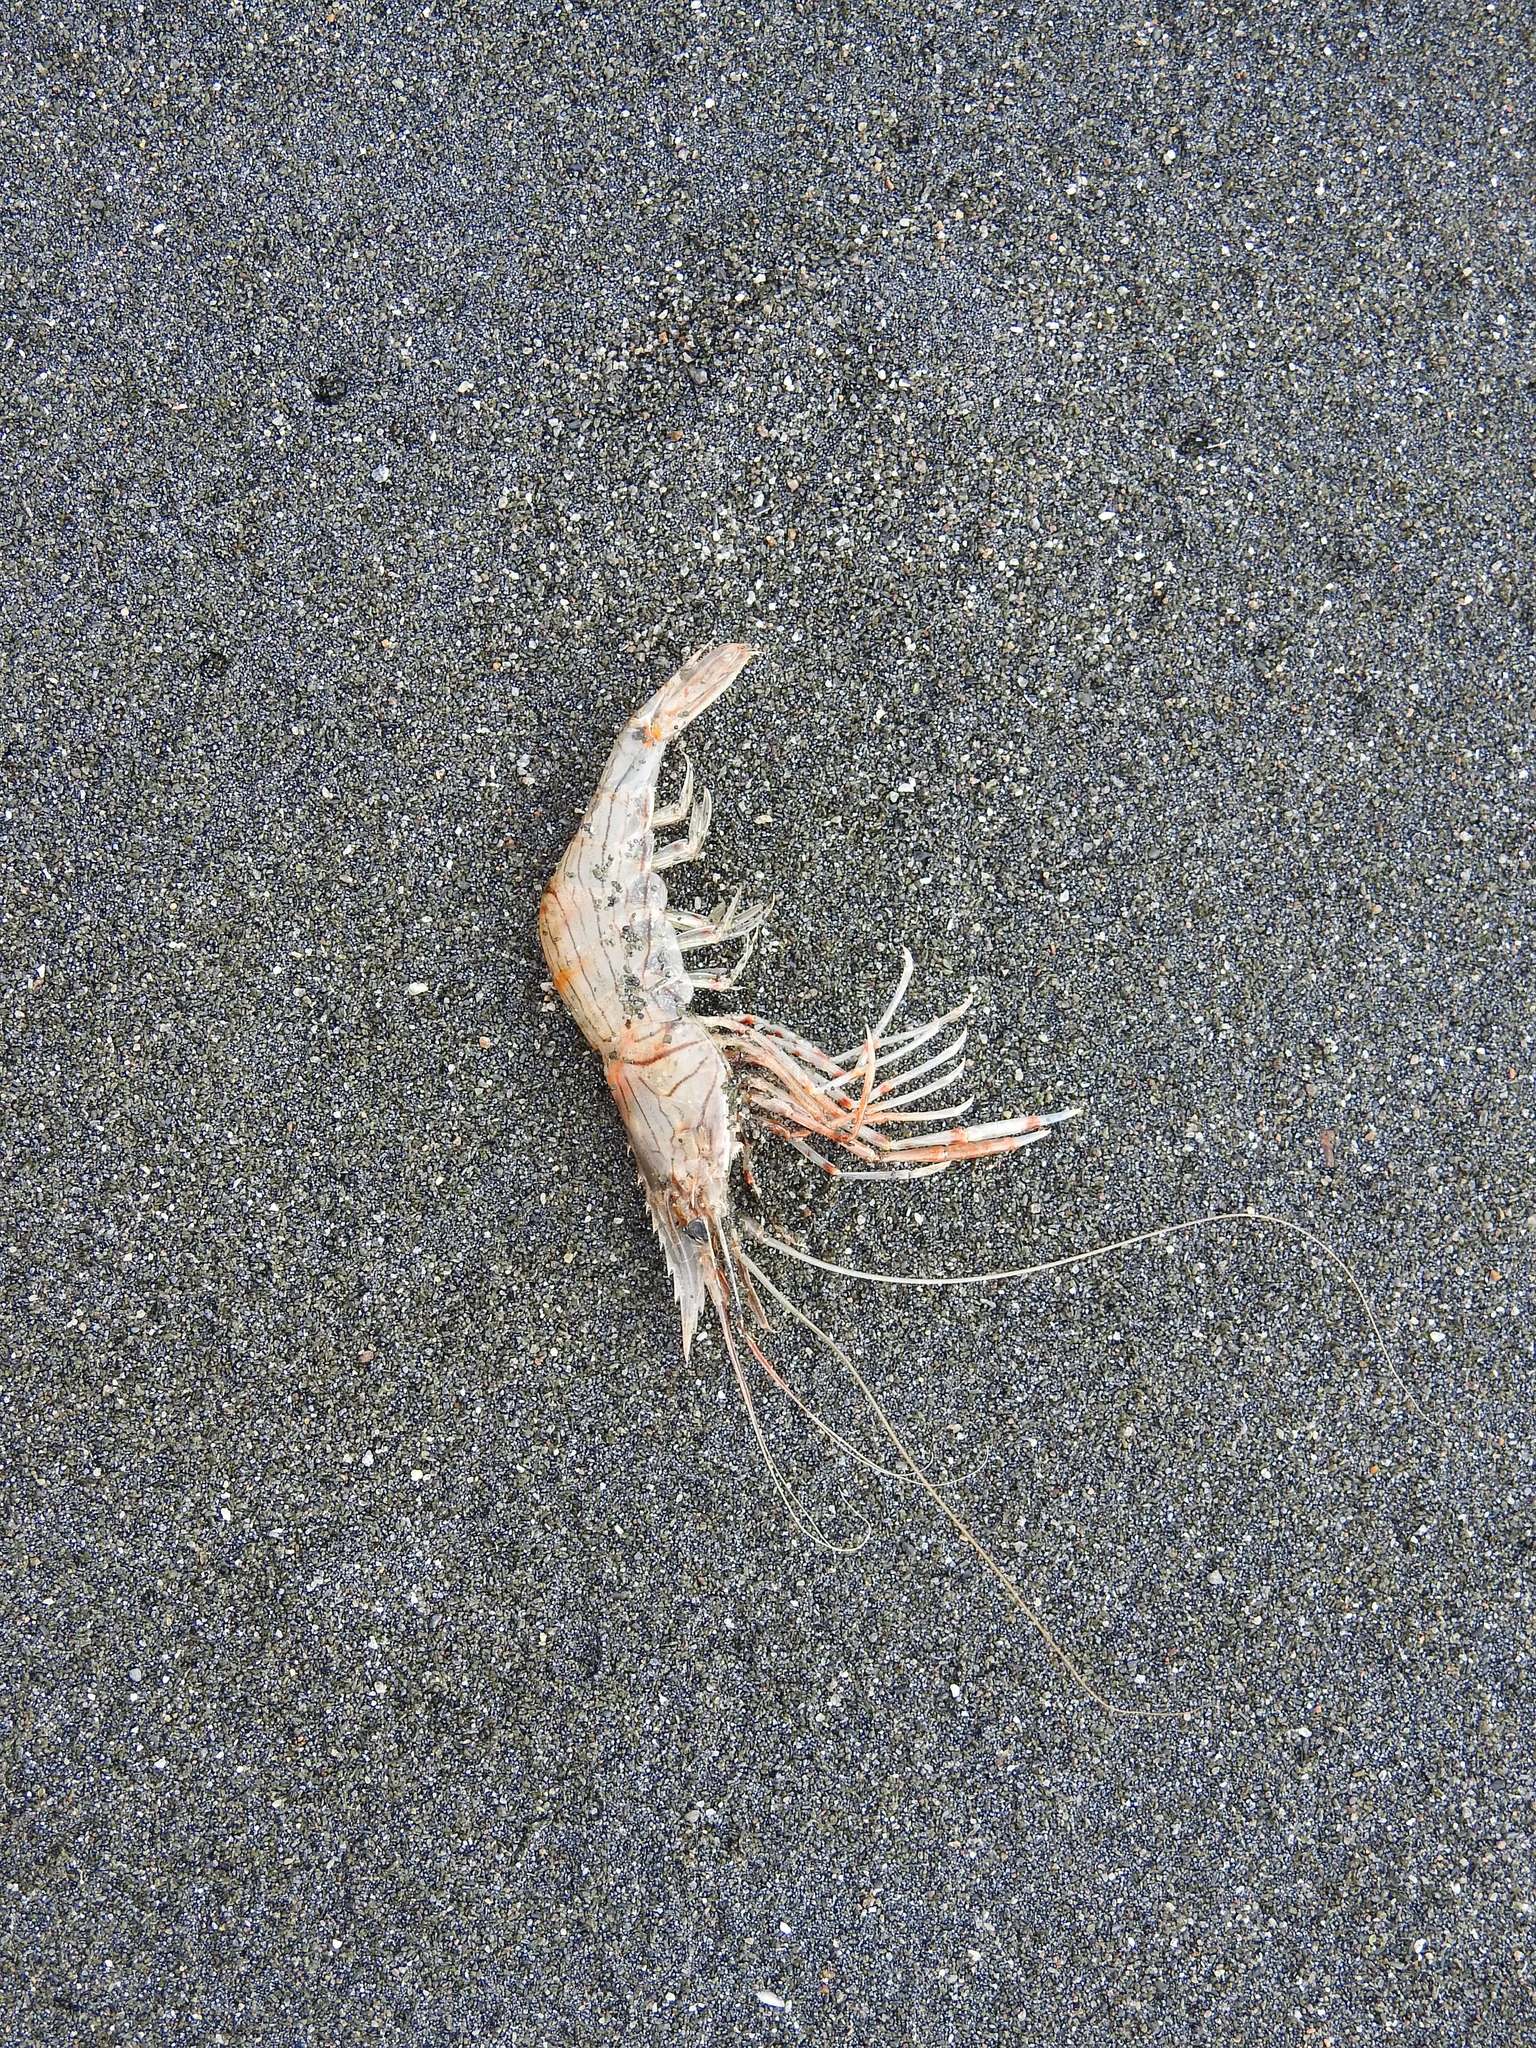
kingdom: Animalia
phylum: Arthropoda
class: Malacostraca
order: Decapoda
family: Palaemonidae
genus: Palaemon
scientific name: Palaemon affinis
